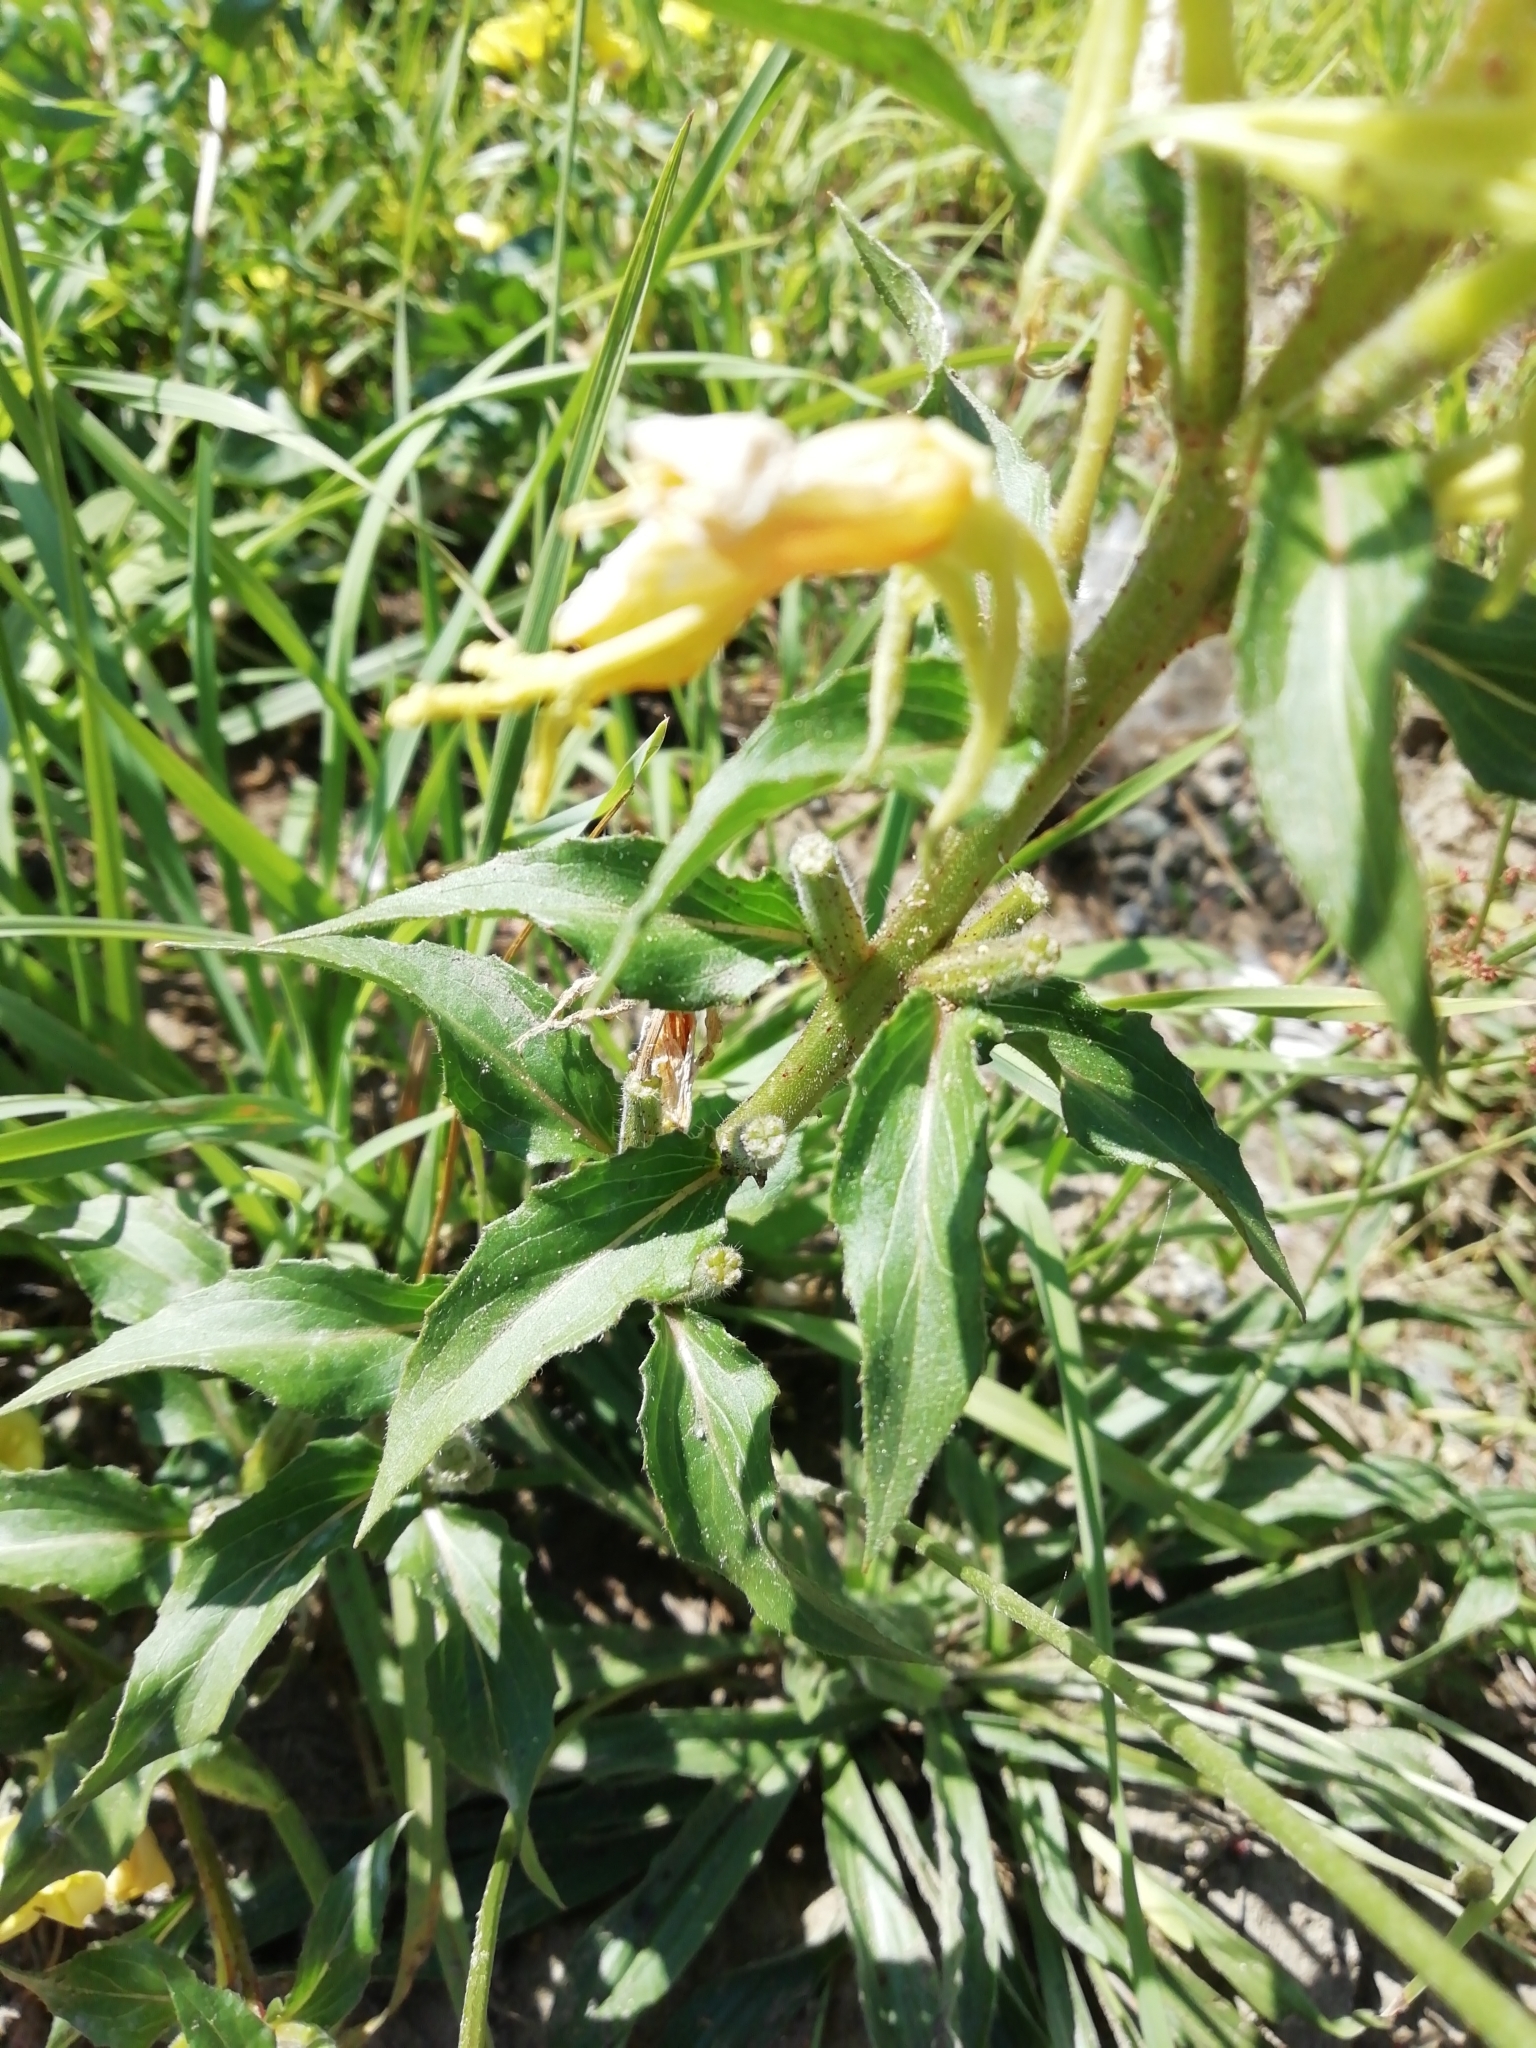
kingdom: Plantae
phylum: Tracheophyta
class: Magnoliopsida
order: Myrtales
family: Onagraceae
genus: Oenothera
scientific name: Oenothera rubricaulis
